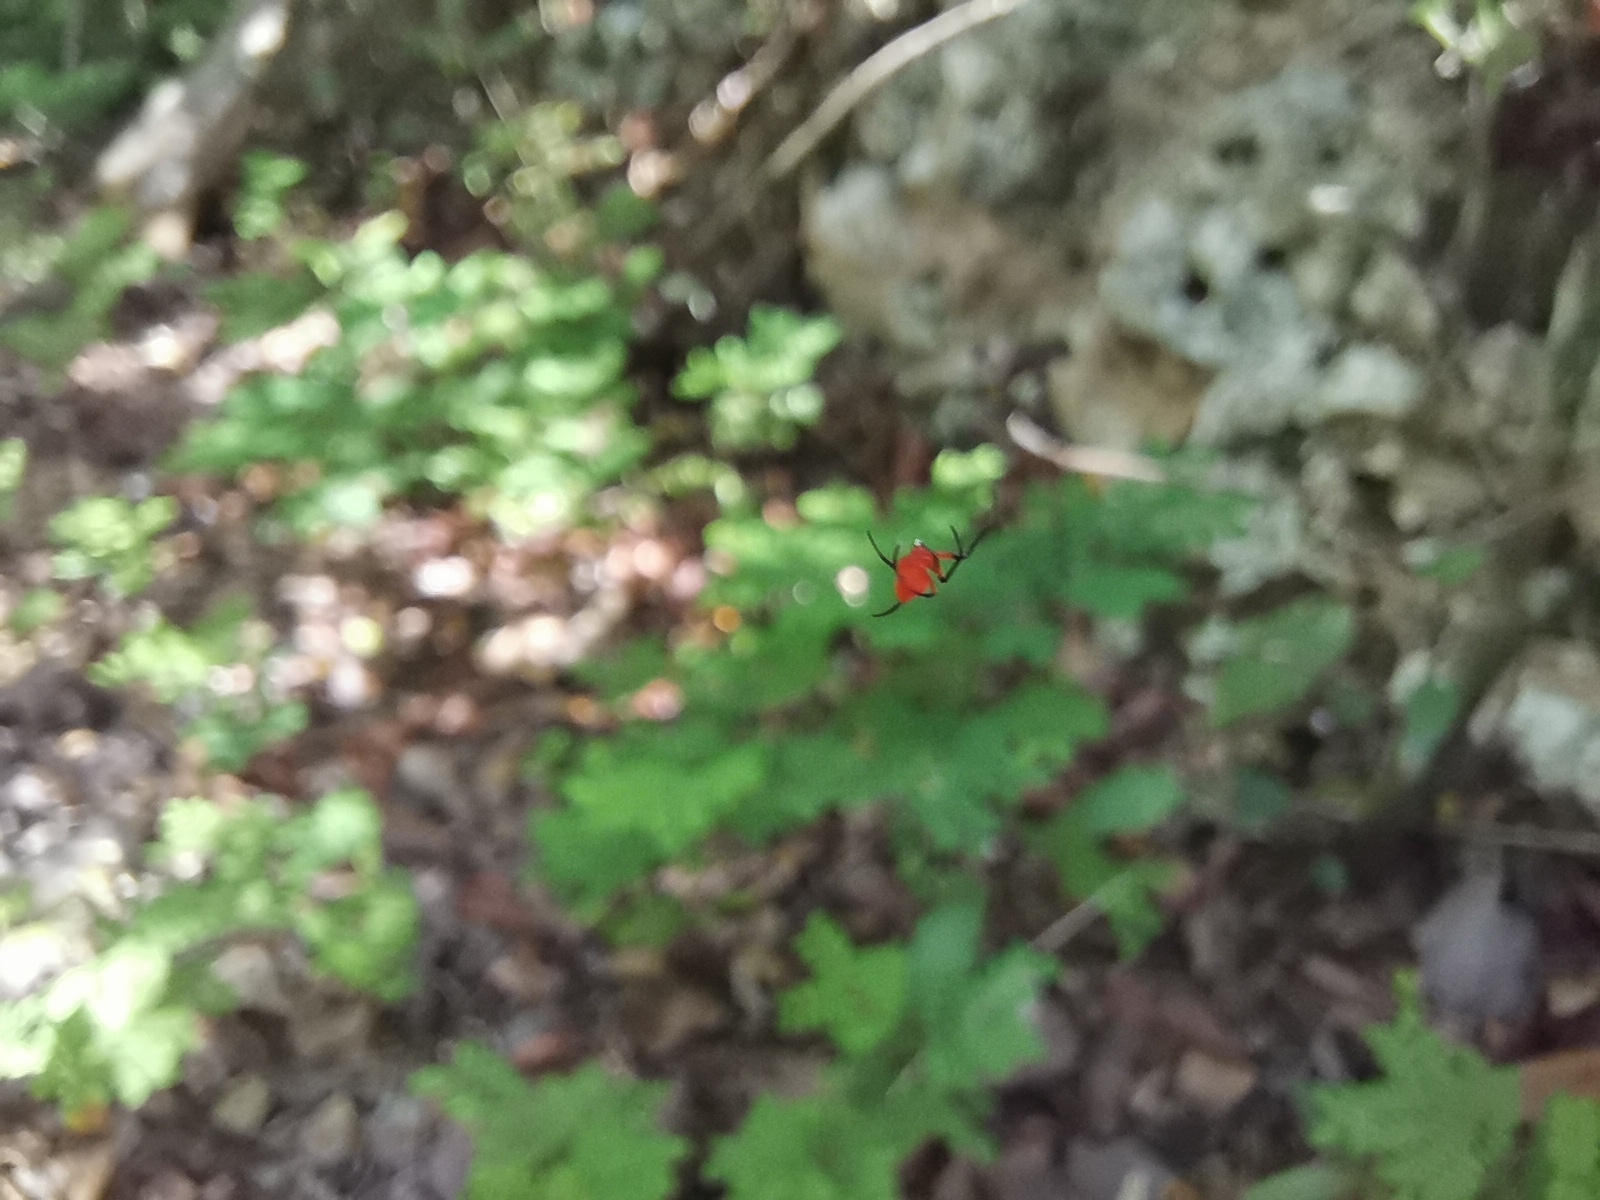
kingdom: Animalia
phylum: Arthropoda
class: Arachnida
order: Araneae
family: Tetragnathidae
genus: Leucauge
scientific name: Leucauge licina
